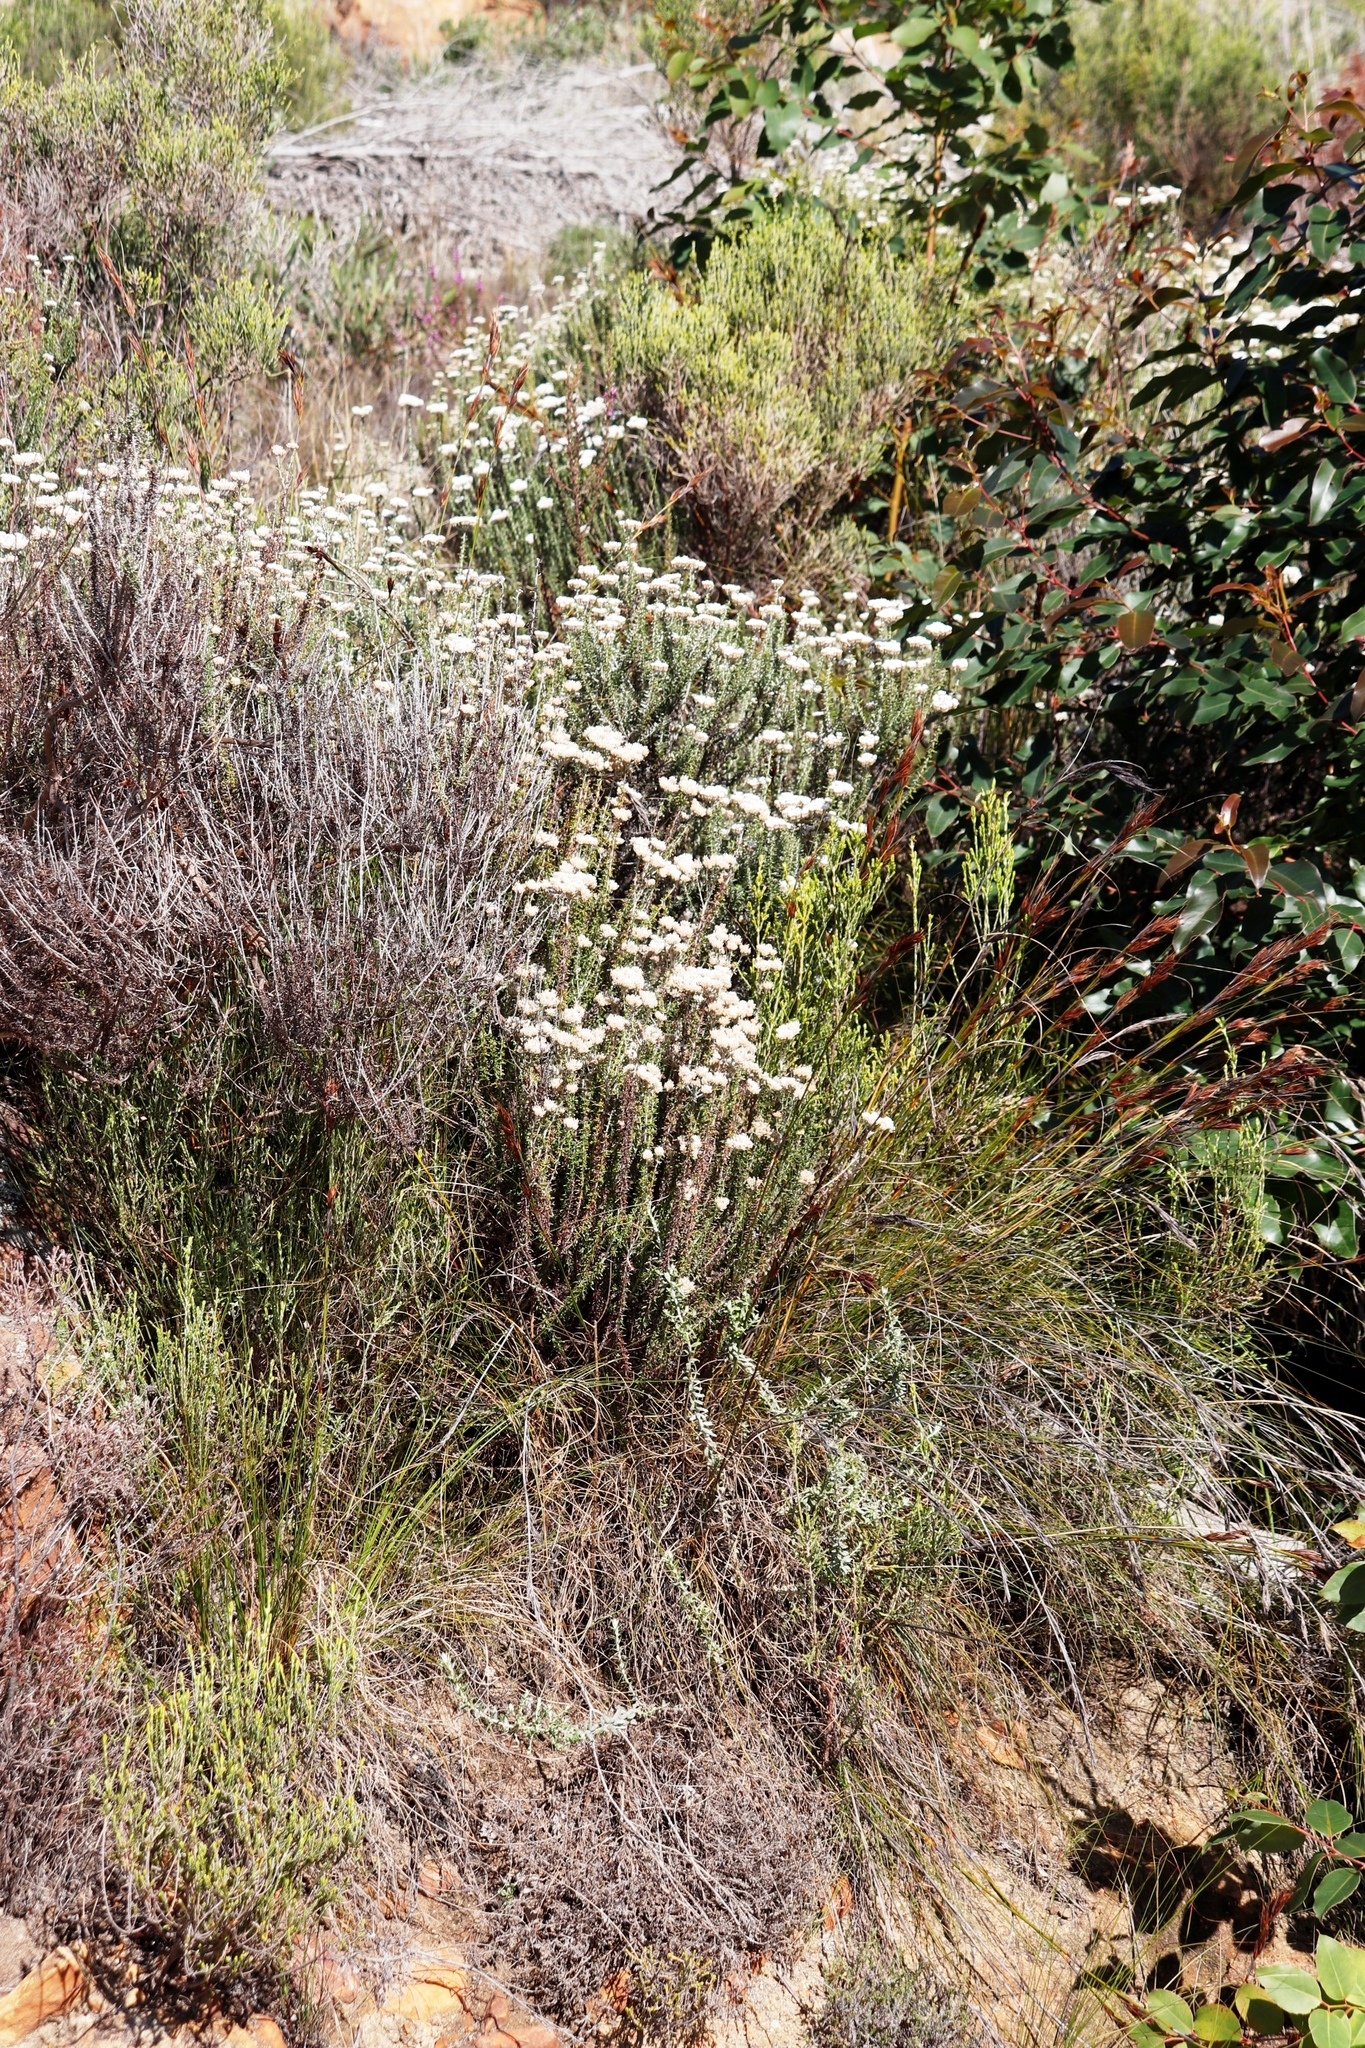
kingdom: Plantae
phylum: Tracheophyta
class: Magnoliopsida
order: Asterales
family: Asteraceae
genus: Metalasia
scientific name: Metalasia densa
